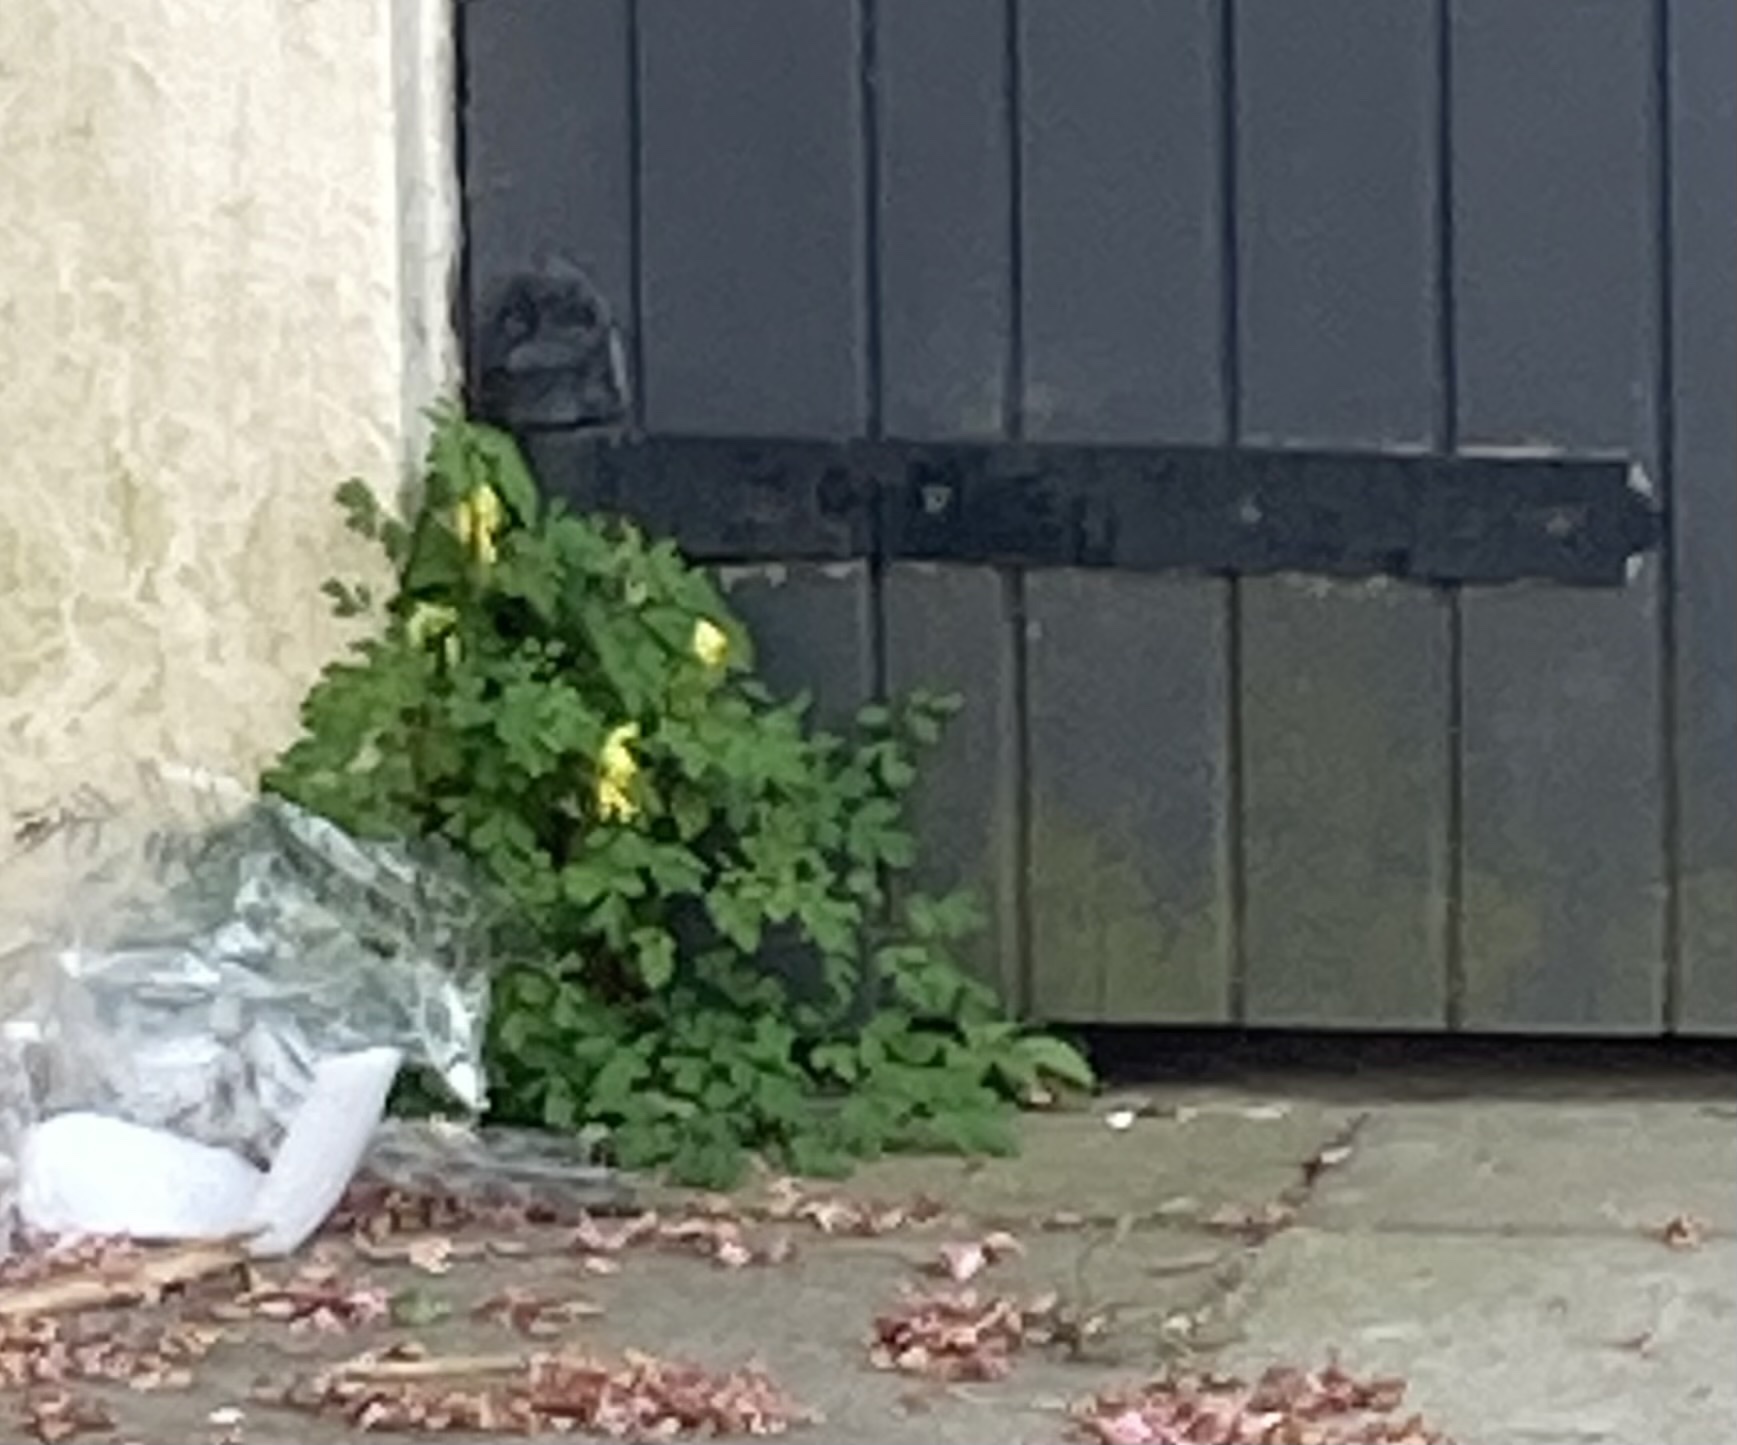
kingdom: Plantae
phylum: Tracheophyta
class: Magnoliopsida
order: Ranunculales
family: Papaveraceae
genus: Pseudofumaria
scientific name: Pseudofumaria lutea
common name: Yellow corydalis
